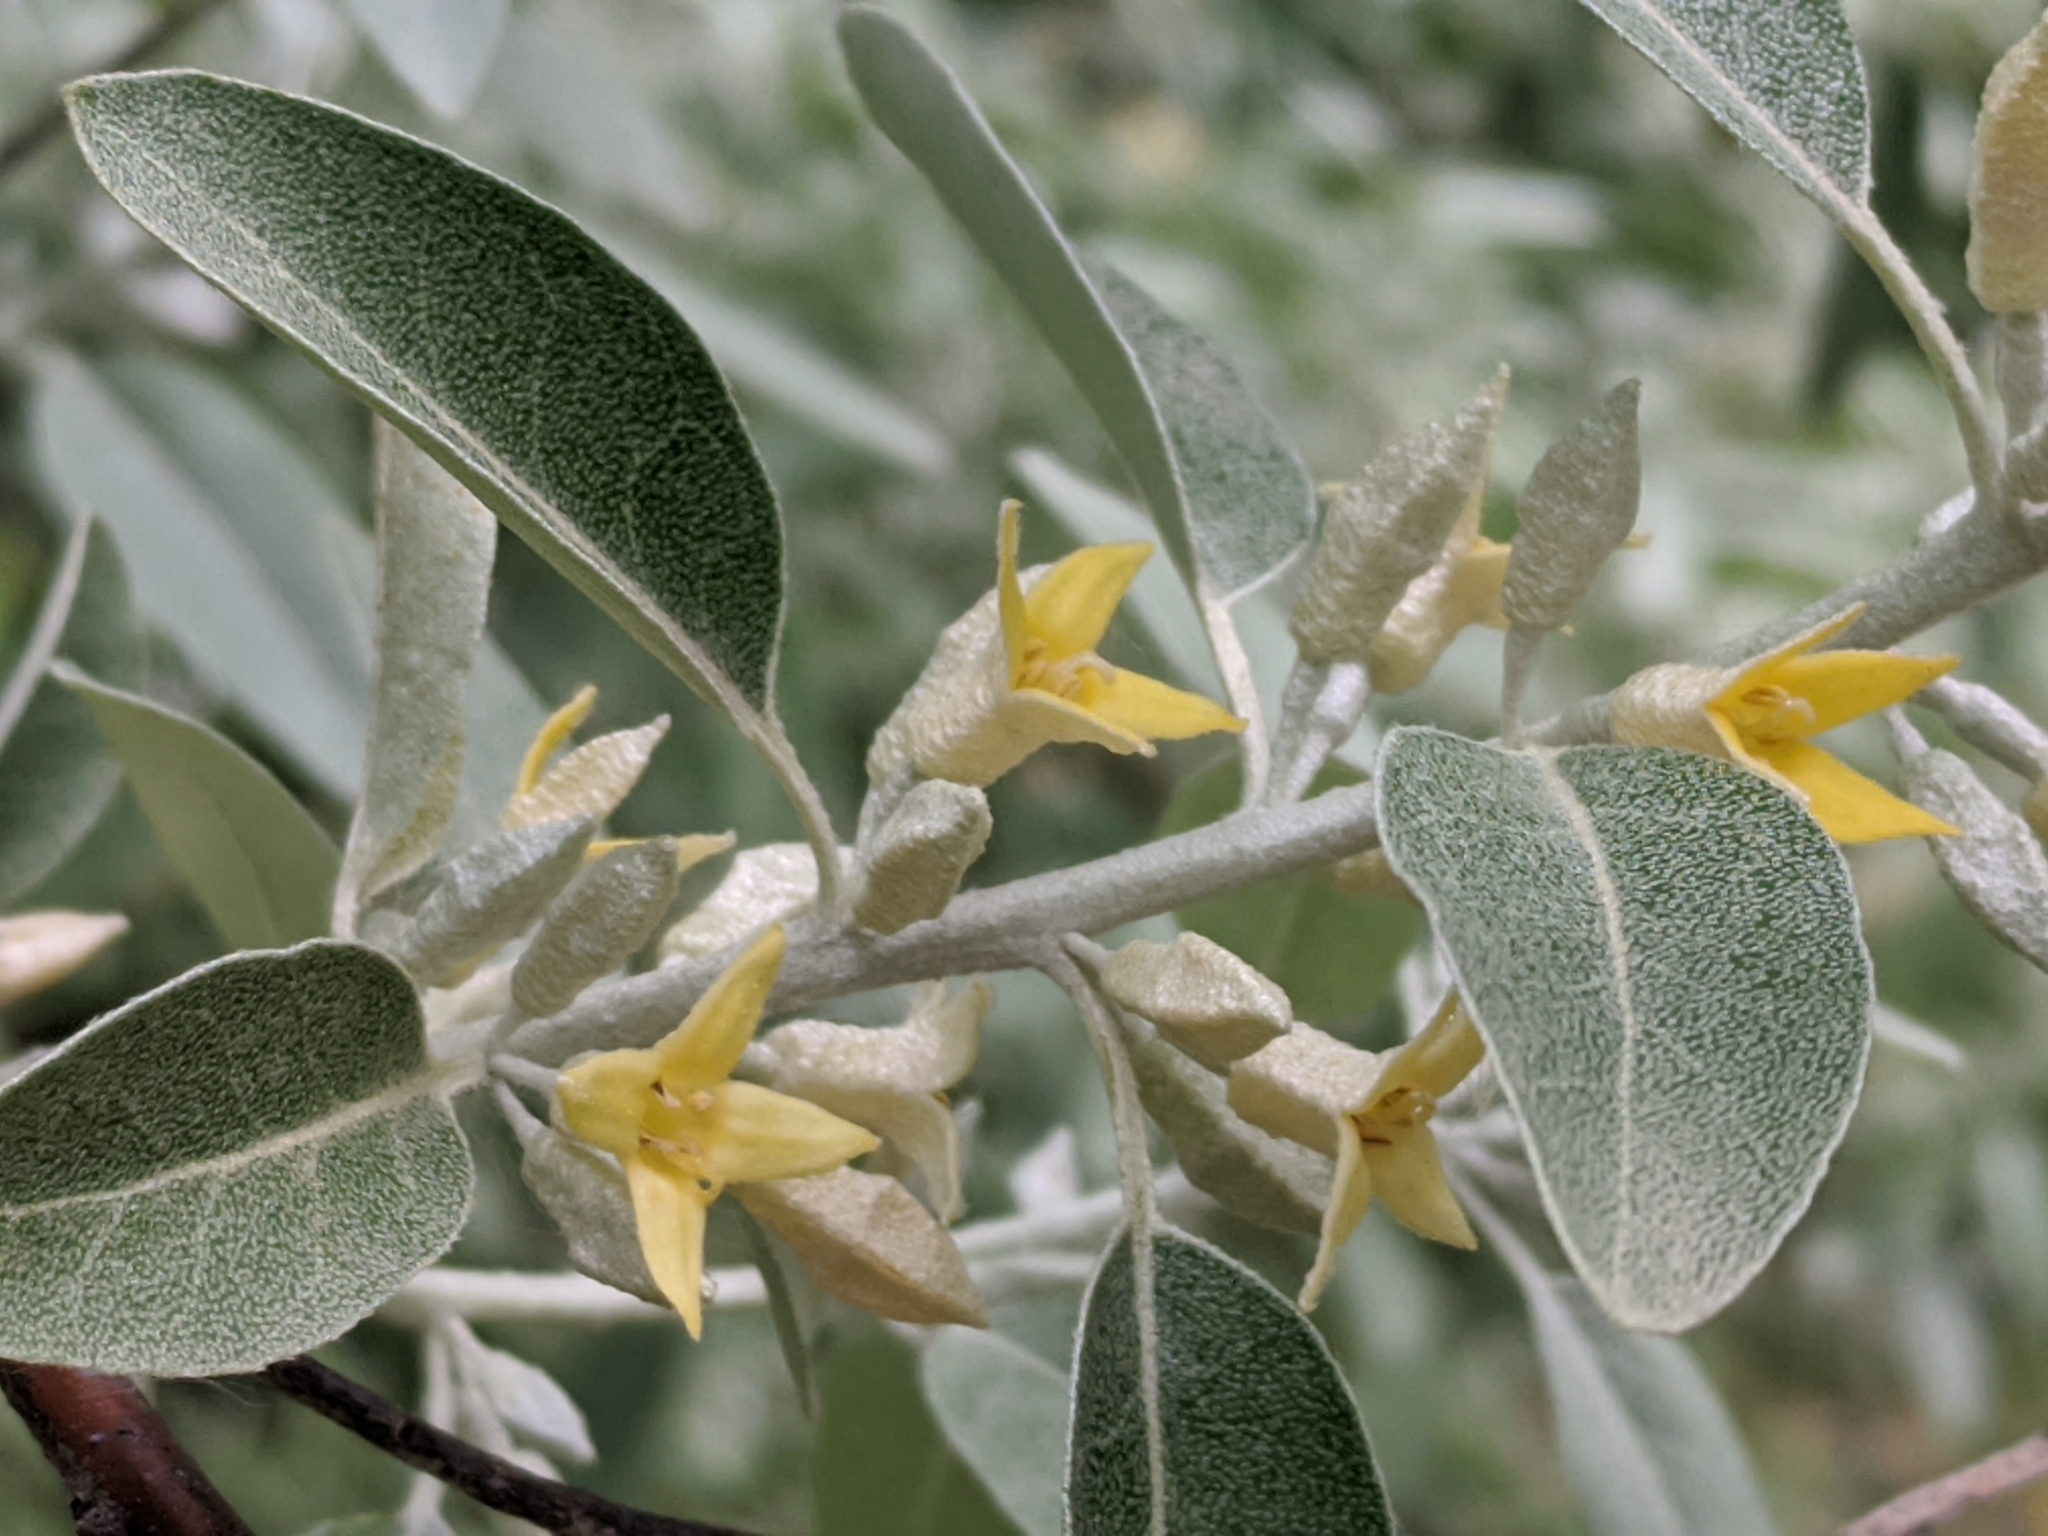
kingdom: Plantae
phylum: Tracheophyta
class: Magnoliopsida
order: Rosales
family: Elaeagnaceae
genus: Elaeagnus
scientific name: Elaeagnus angustifolia
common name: Russian olive
